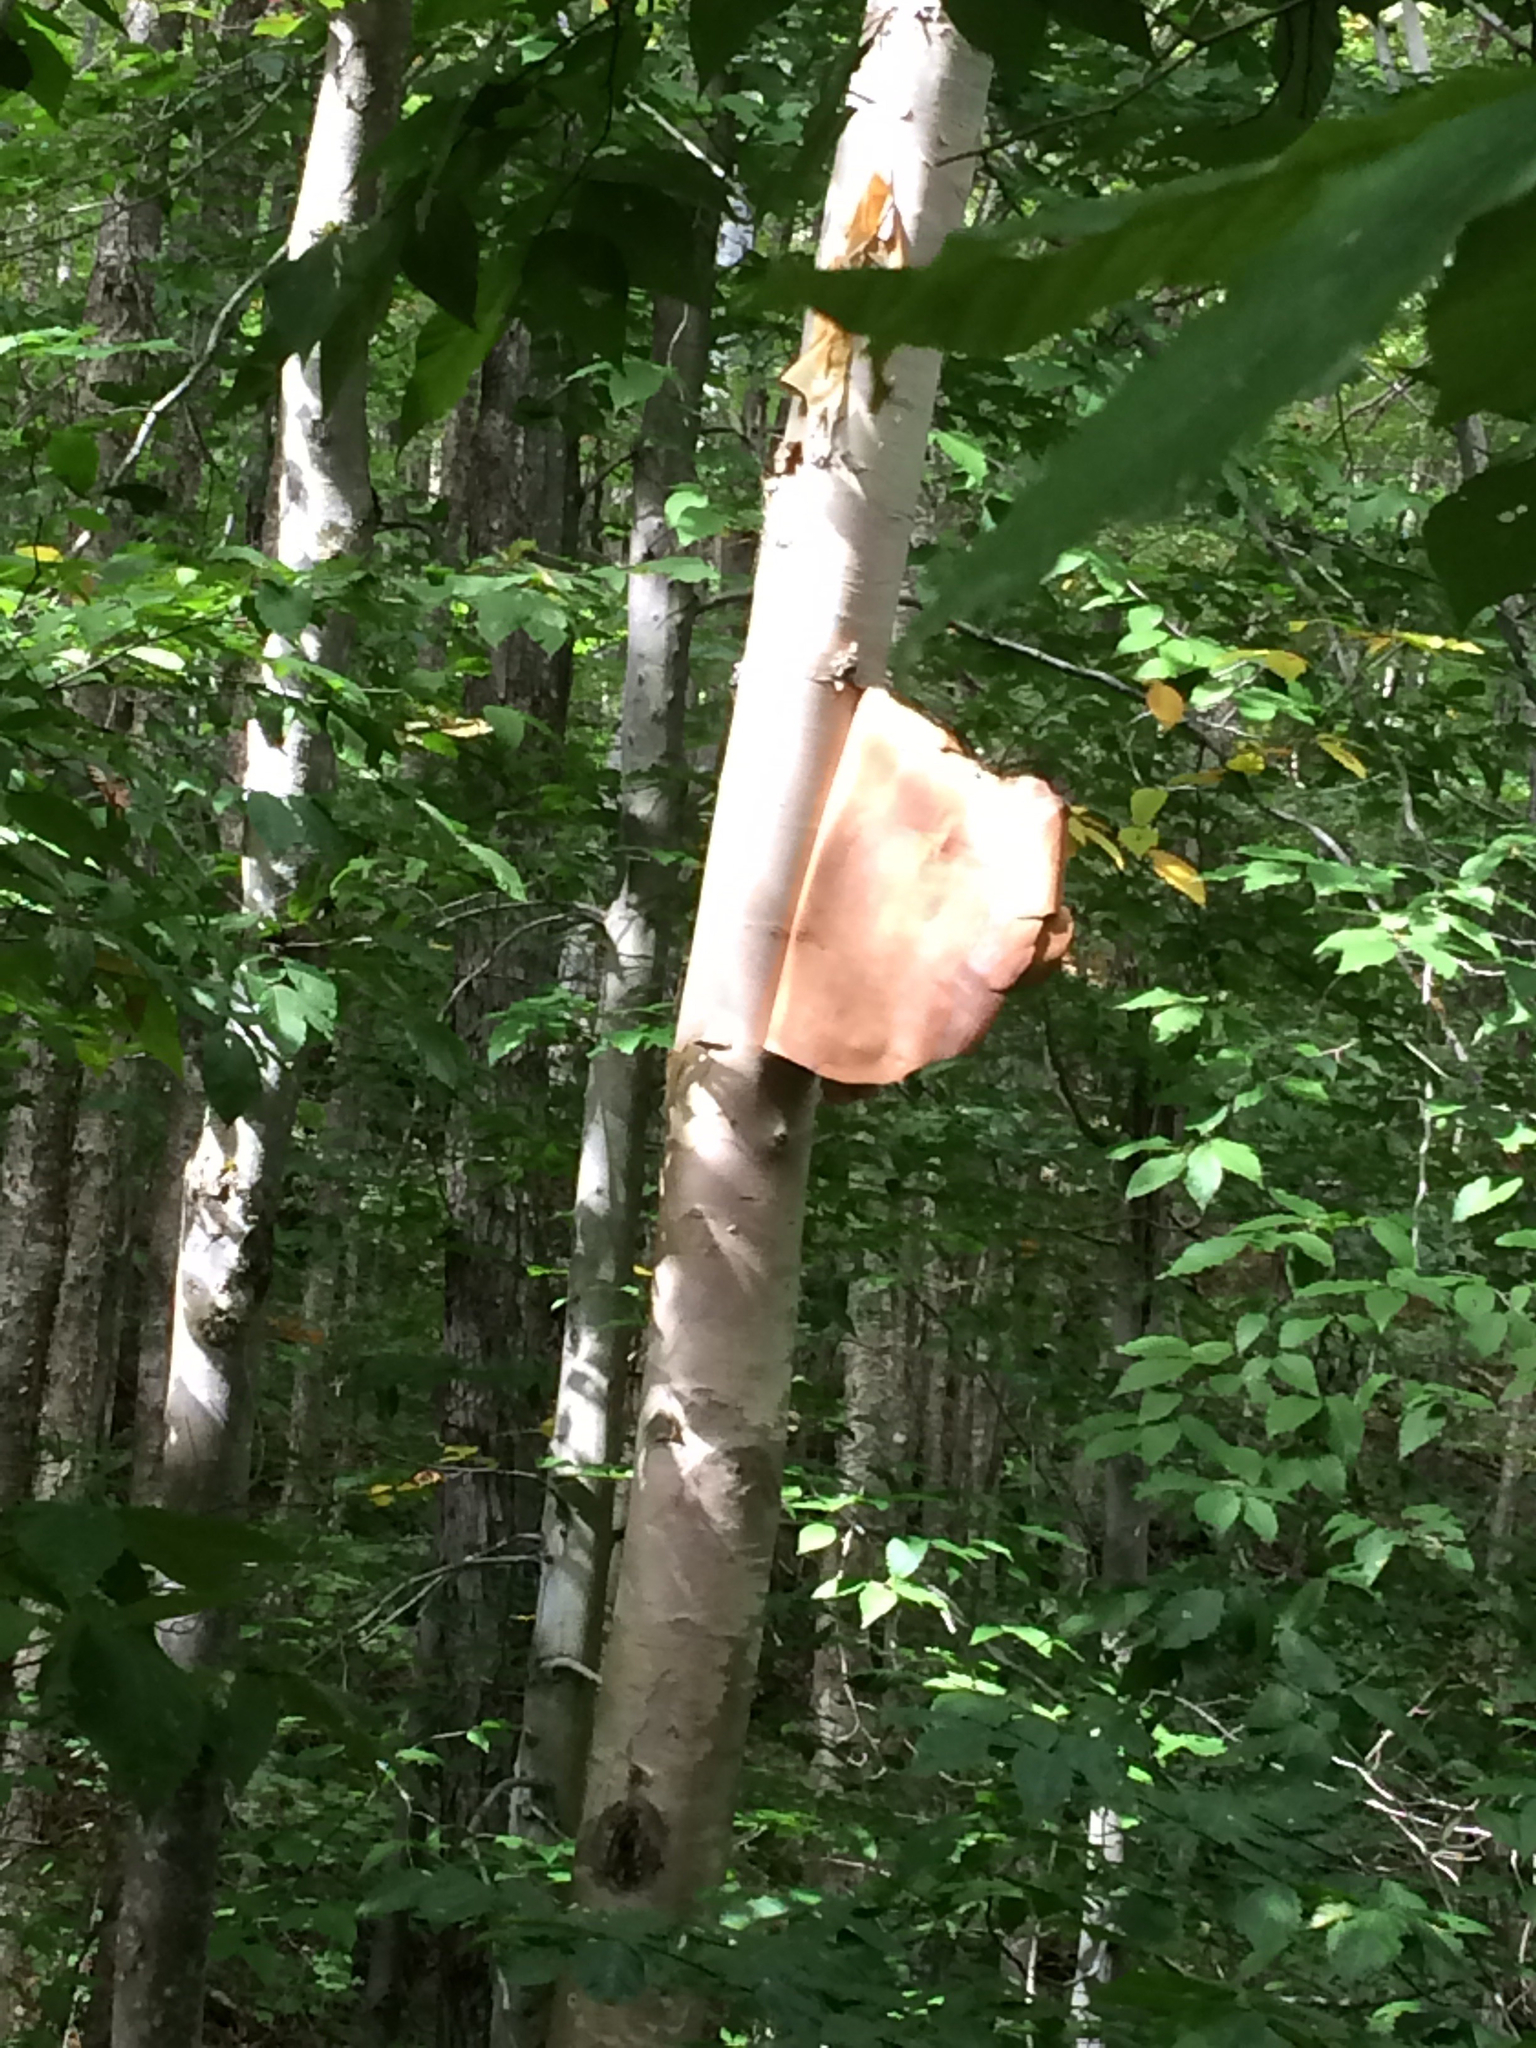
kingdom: Plantae
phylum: Tracheophyta
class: Magnoliopsida
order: Fagales
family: Betulaceae
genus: Betula
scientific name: Betula cordifolia
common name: Mountain white birch
